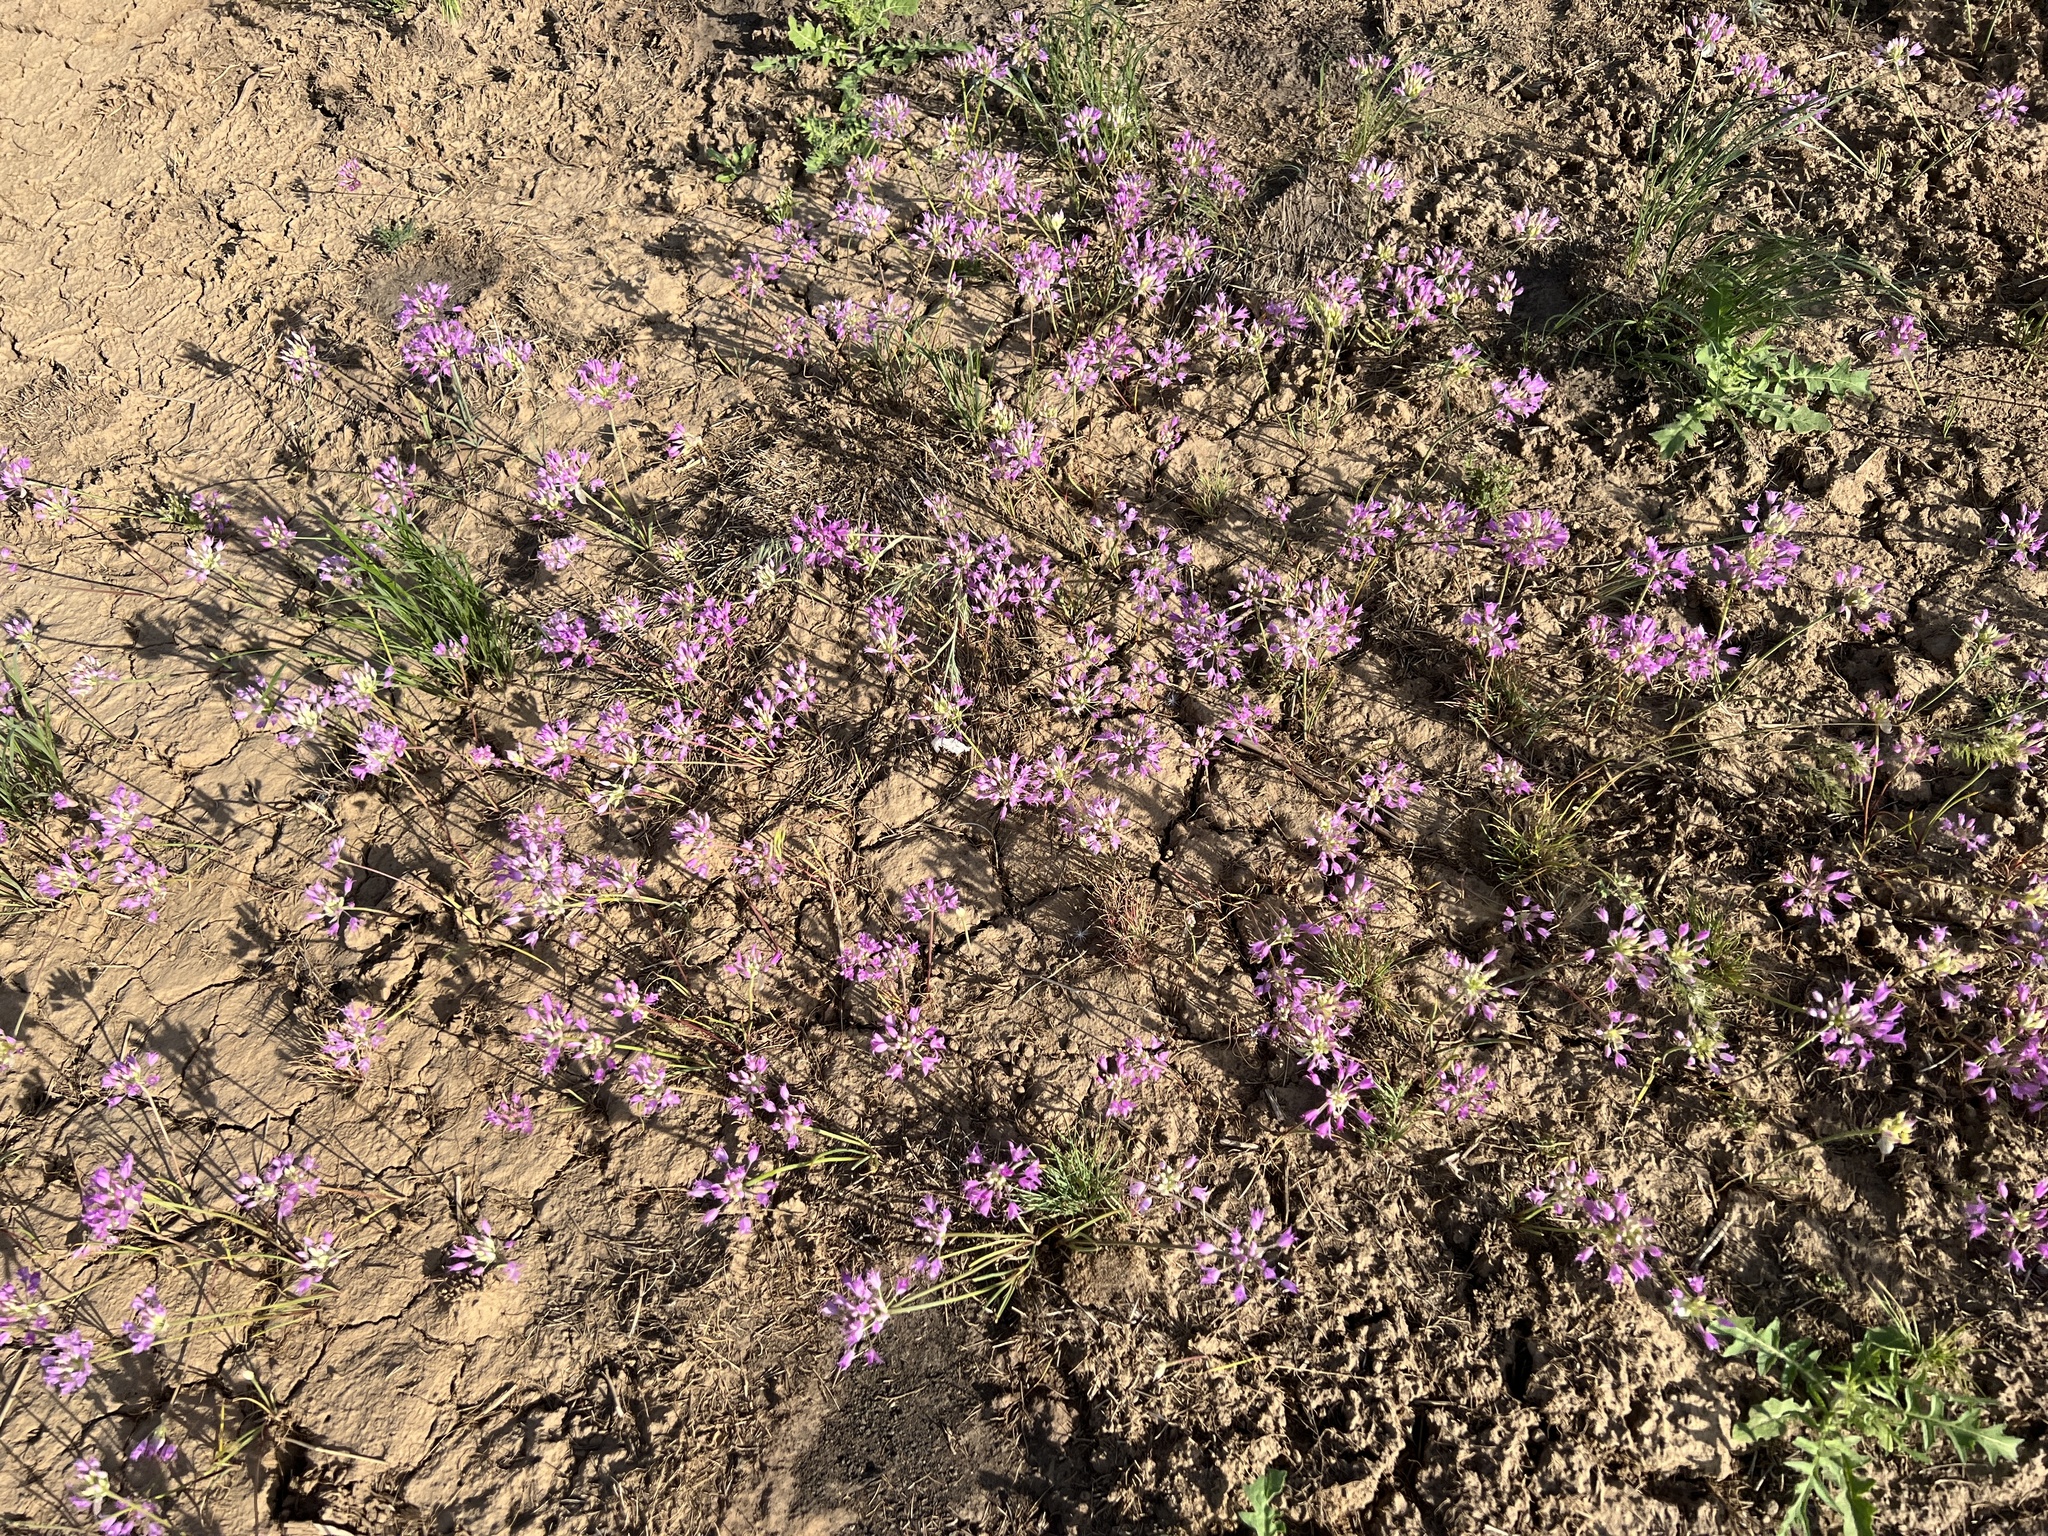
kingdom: Plantae
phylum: Tracheophyta
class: Liliopsida
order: Asparagales
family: Amaryllidaceae
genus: Allium
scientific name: Allium acuminatum
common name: Hooker's onion
